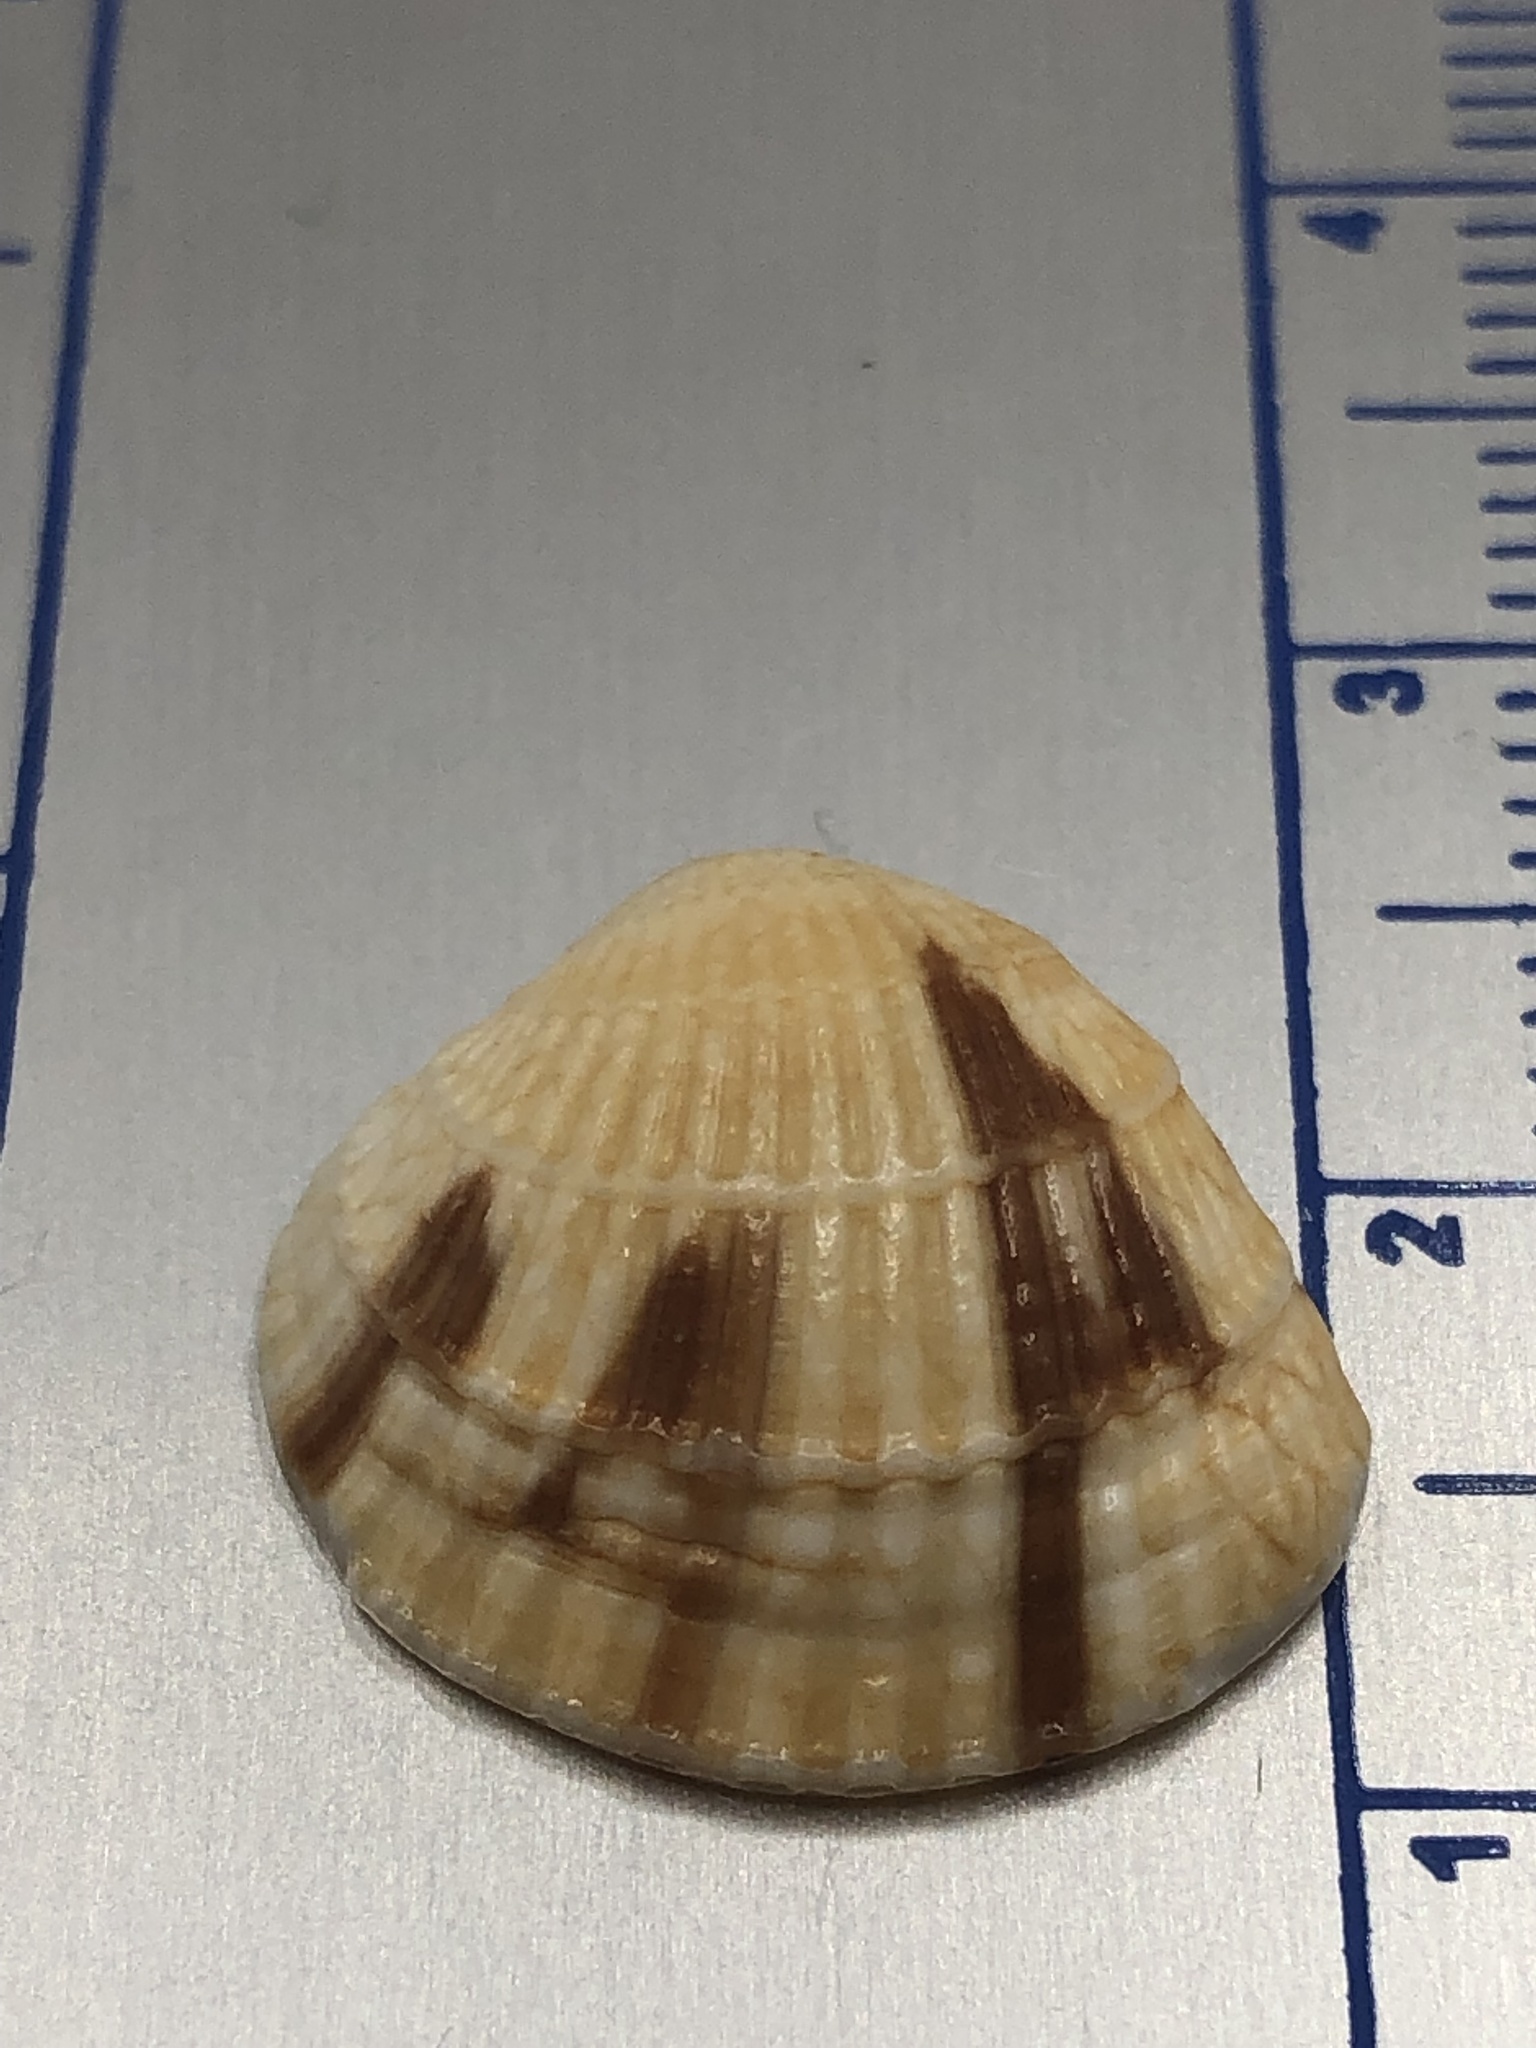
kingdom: Animalia
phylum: Mollusca
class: Bivalvia
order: Venerida
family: Veneridae
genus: Chione
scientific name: Chione elevata
